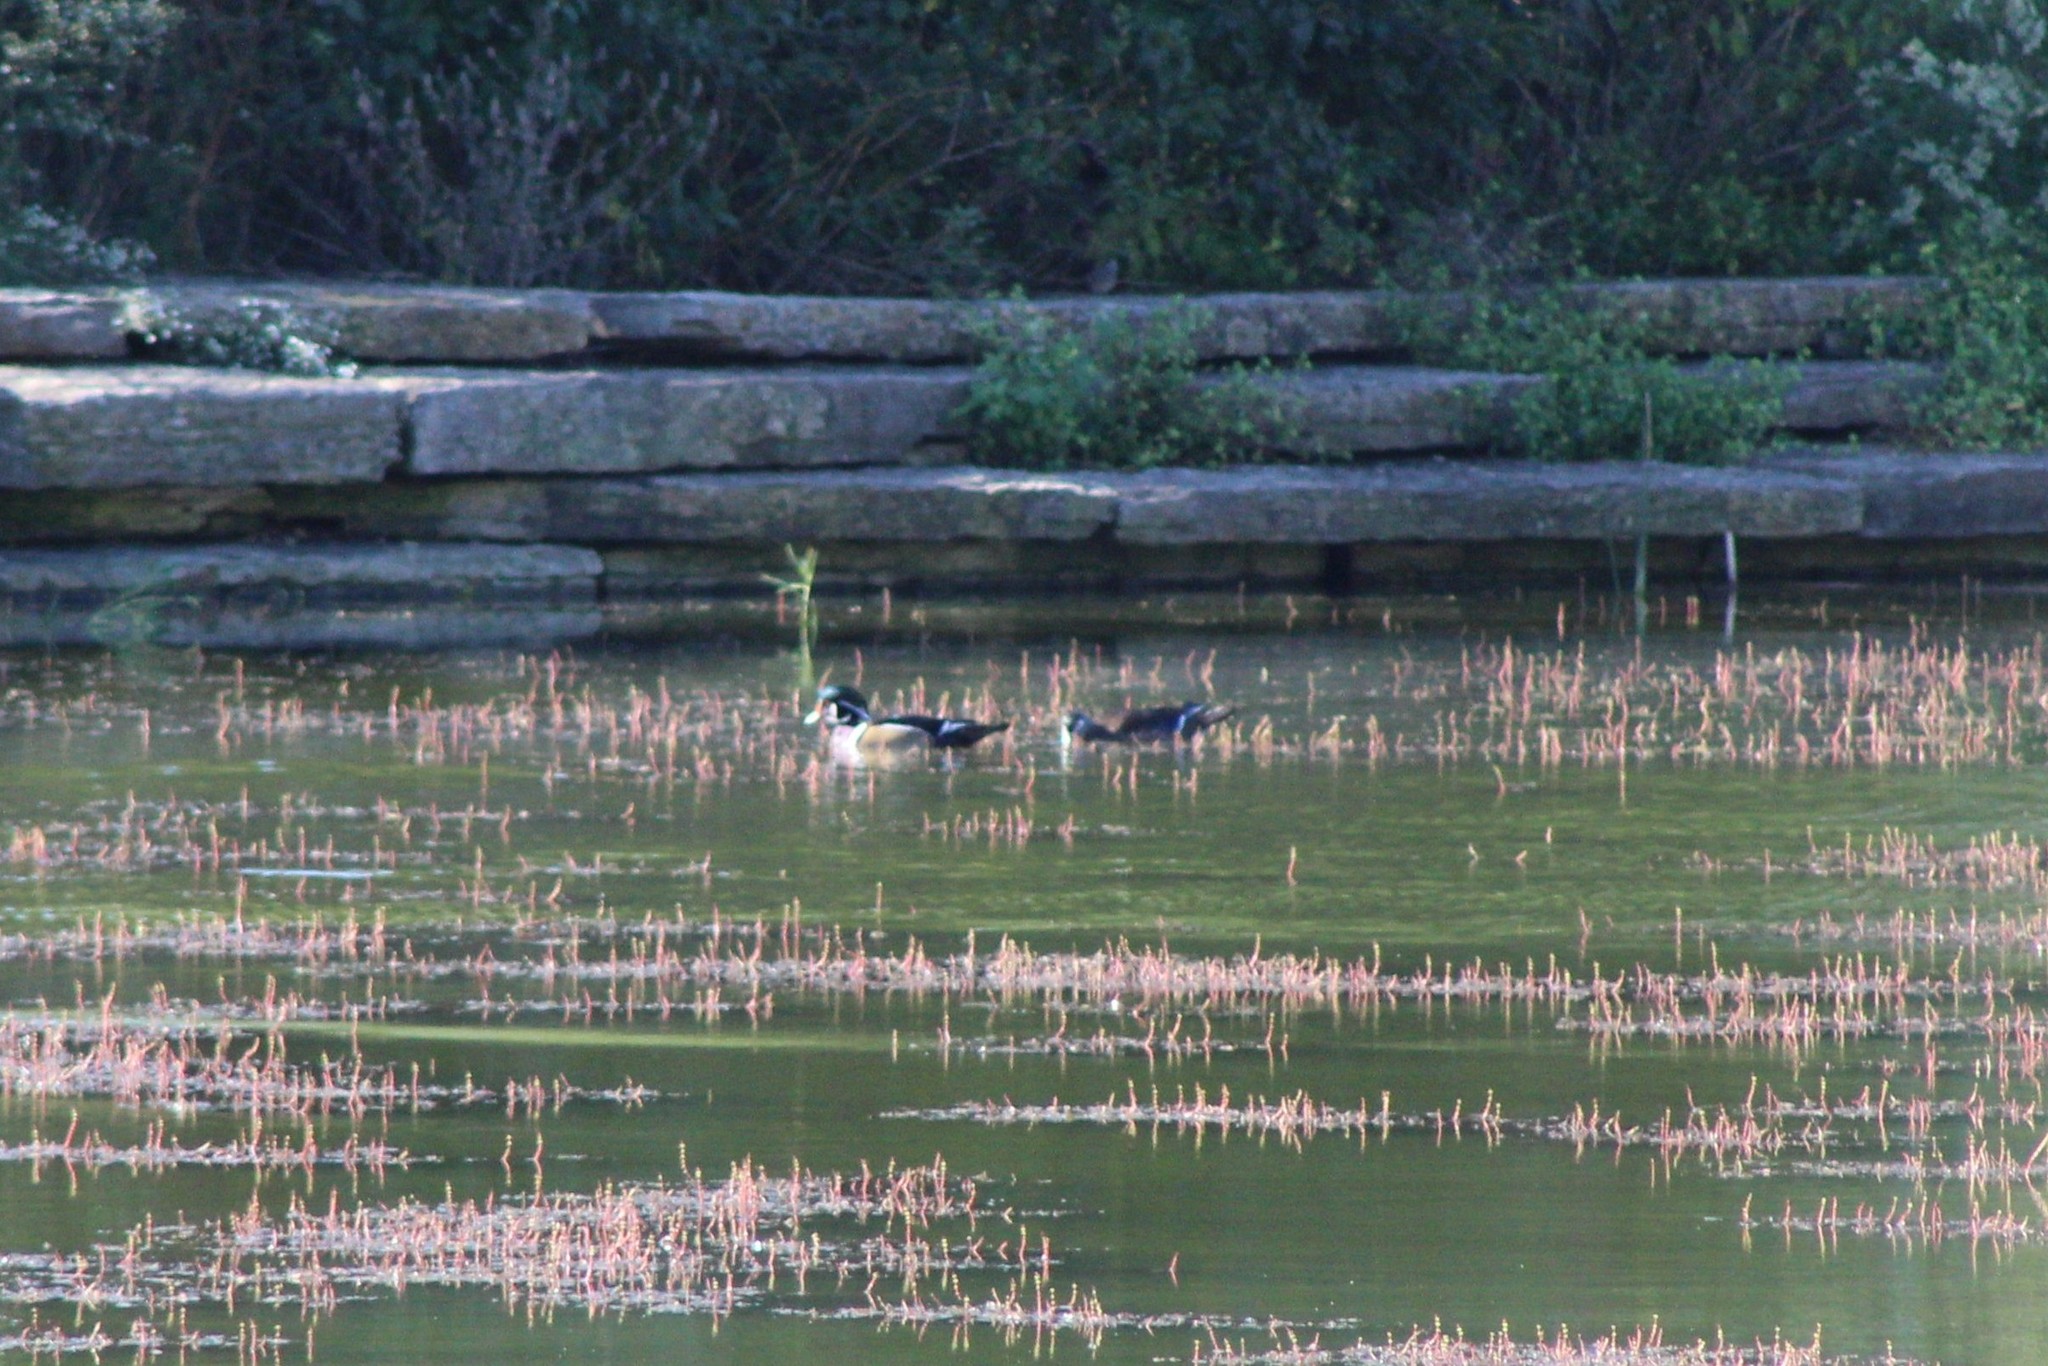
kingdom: Animalia
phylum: Chordata
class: Aves
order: Anseriformes
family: Anatidae
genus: Aix
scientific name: Aix sponsa
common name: Wood duck
